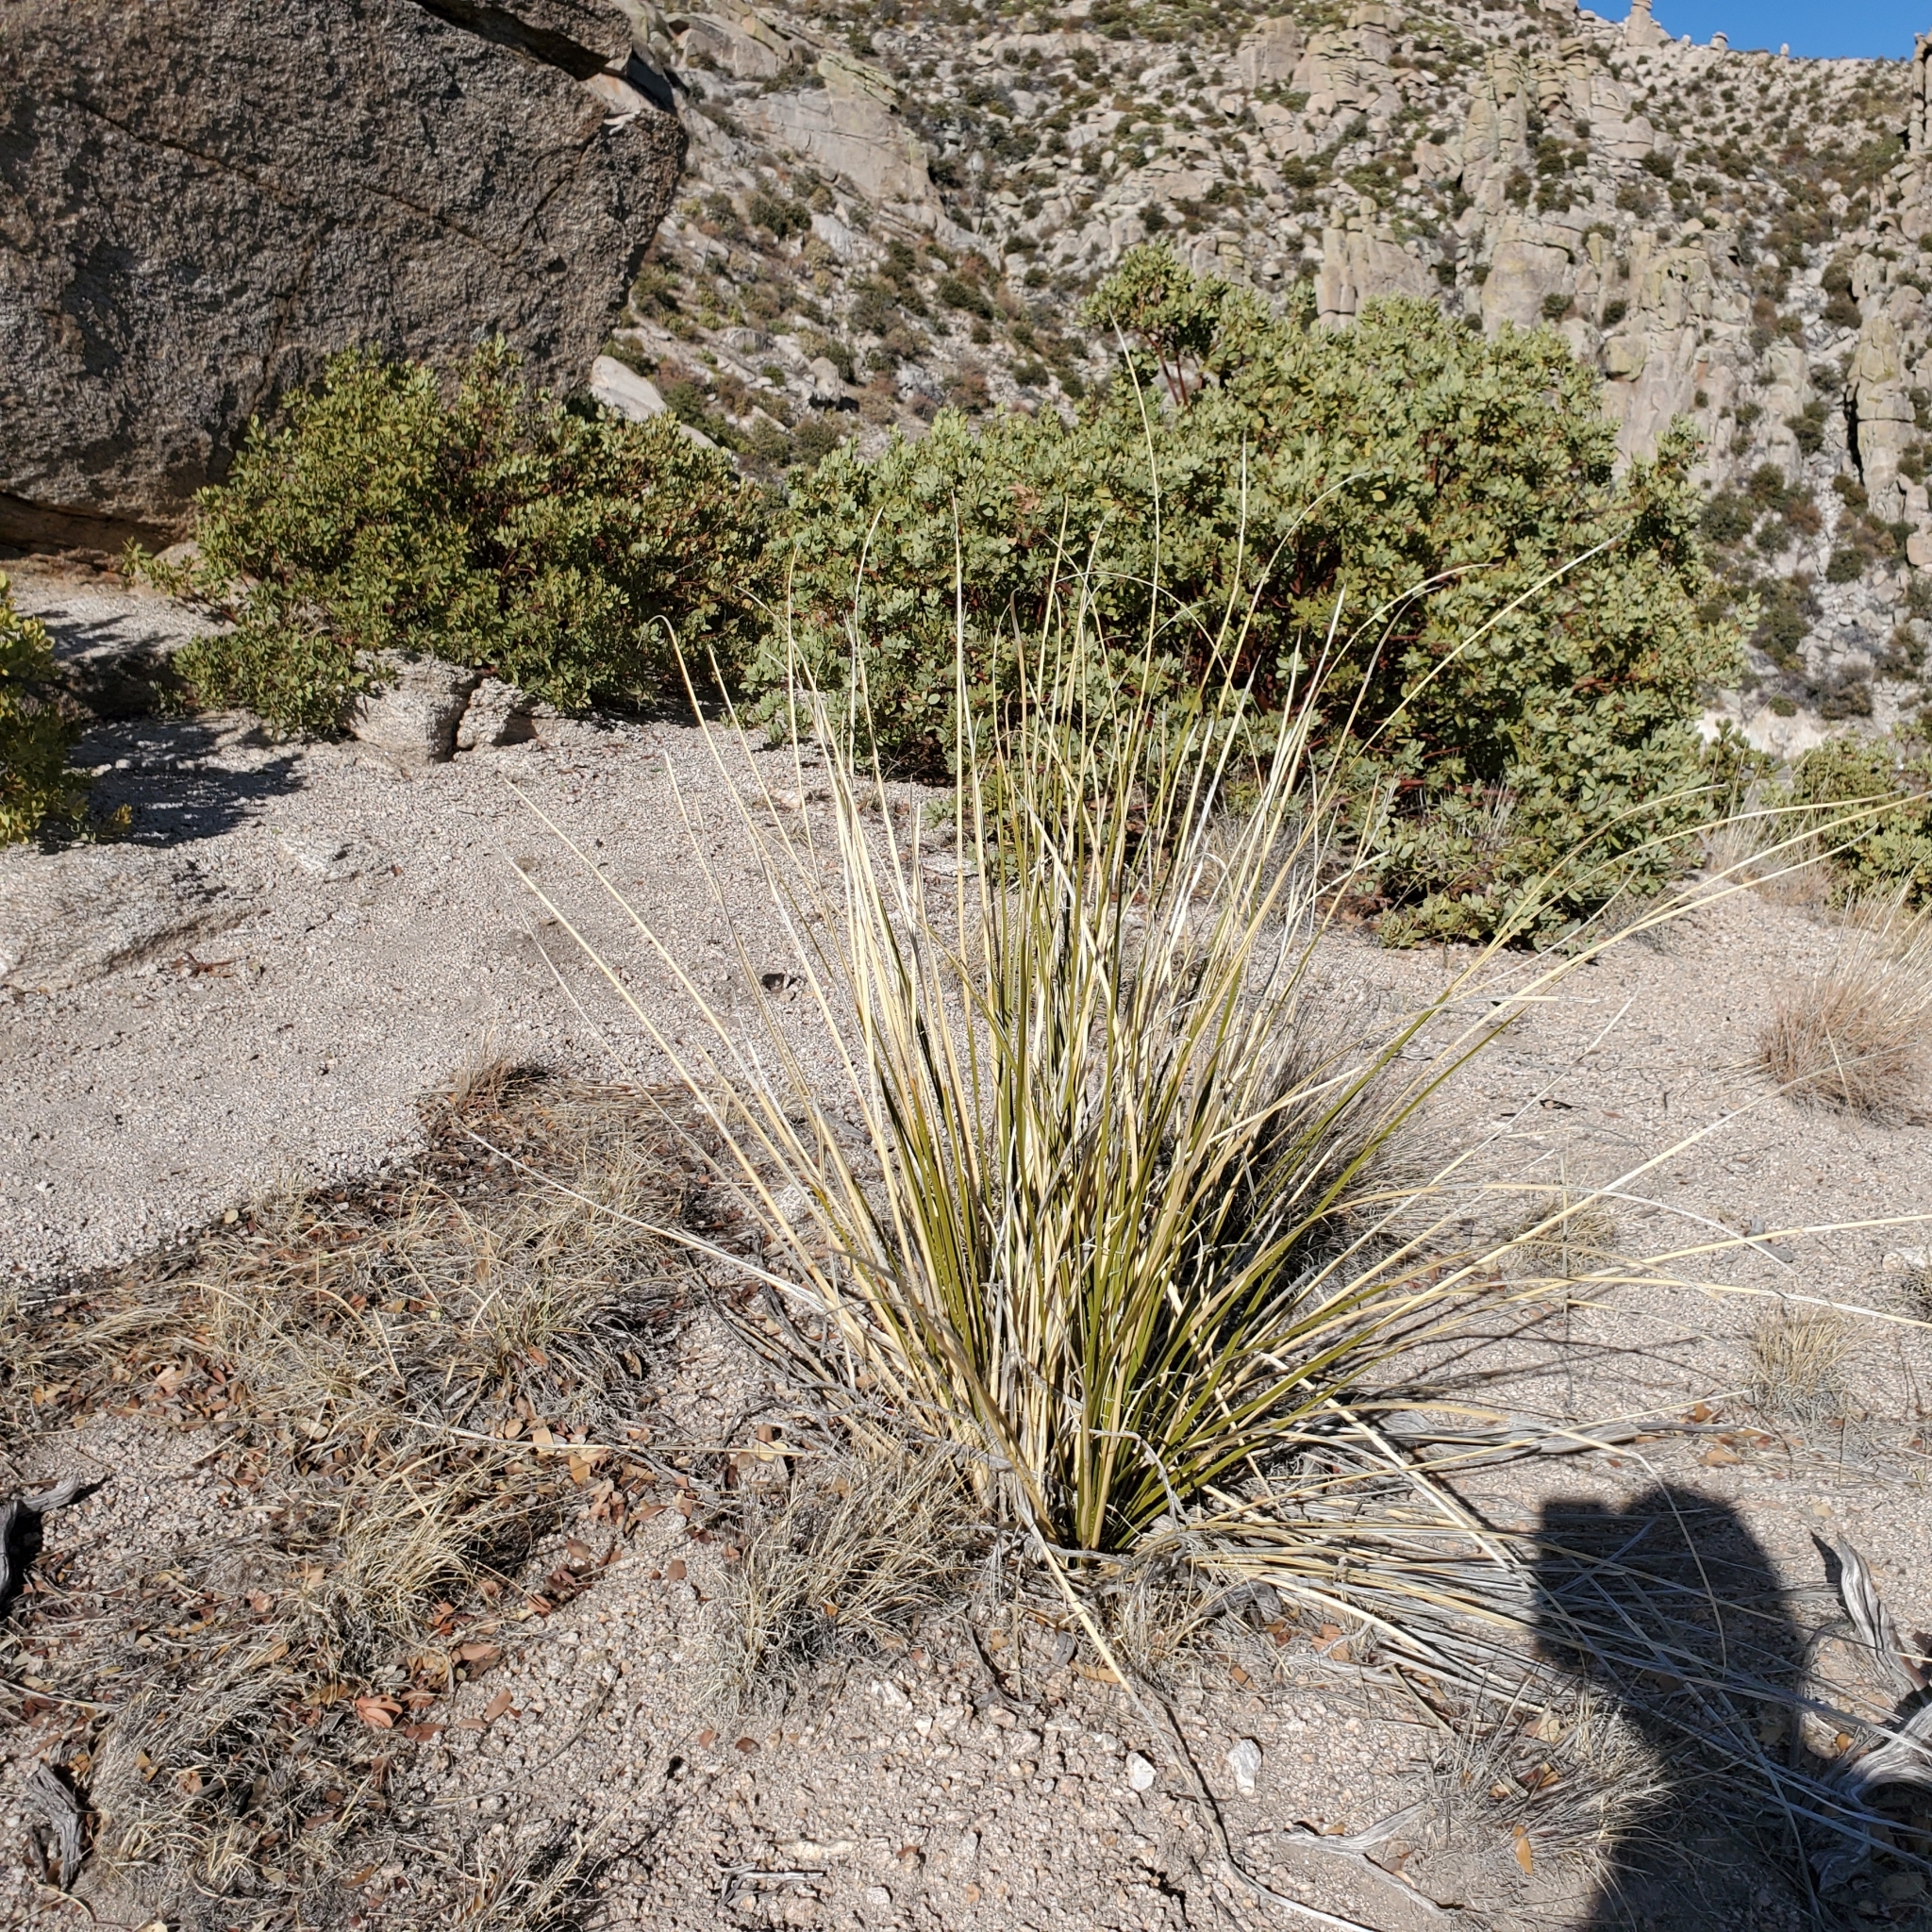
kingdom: Plantae
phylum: Tracheophyta
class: Liliopsida
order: Asparagales
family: Asparagaceae
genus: Nolina
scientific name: Nolina microcarpa
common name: Bear-grass
